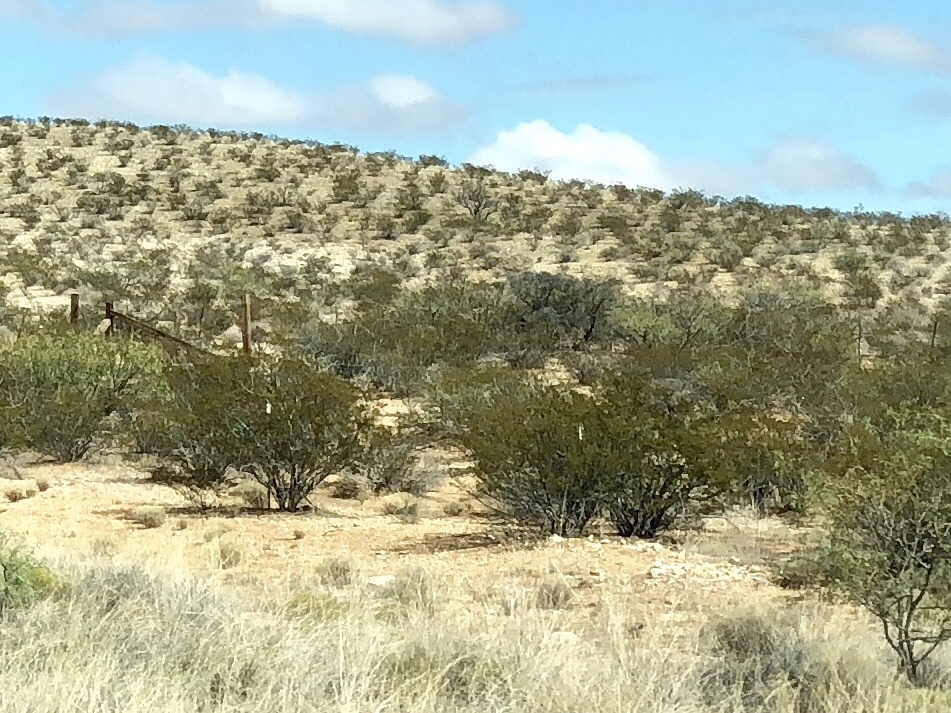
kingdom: Plantae
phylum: Tracheophyta
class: Magnoliopsida
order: Zygophyllales
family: Zygophyllaceae
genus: Larrea
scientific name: Larrea tridentata
